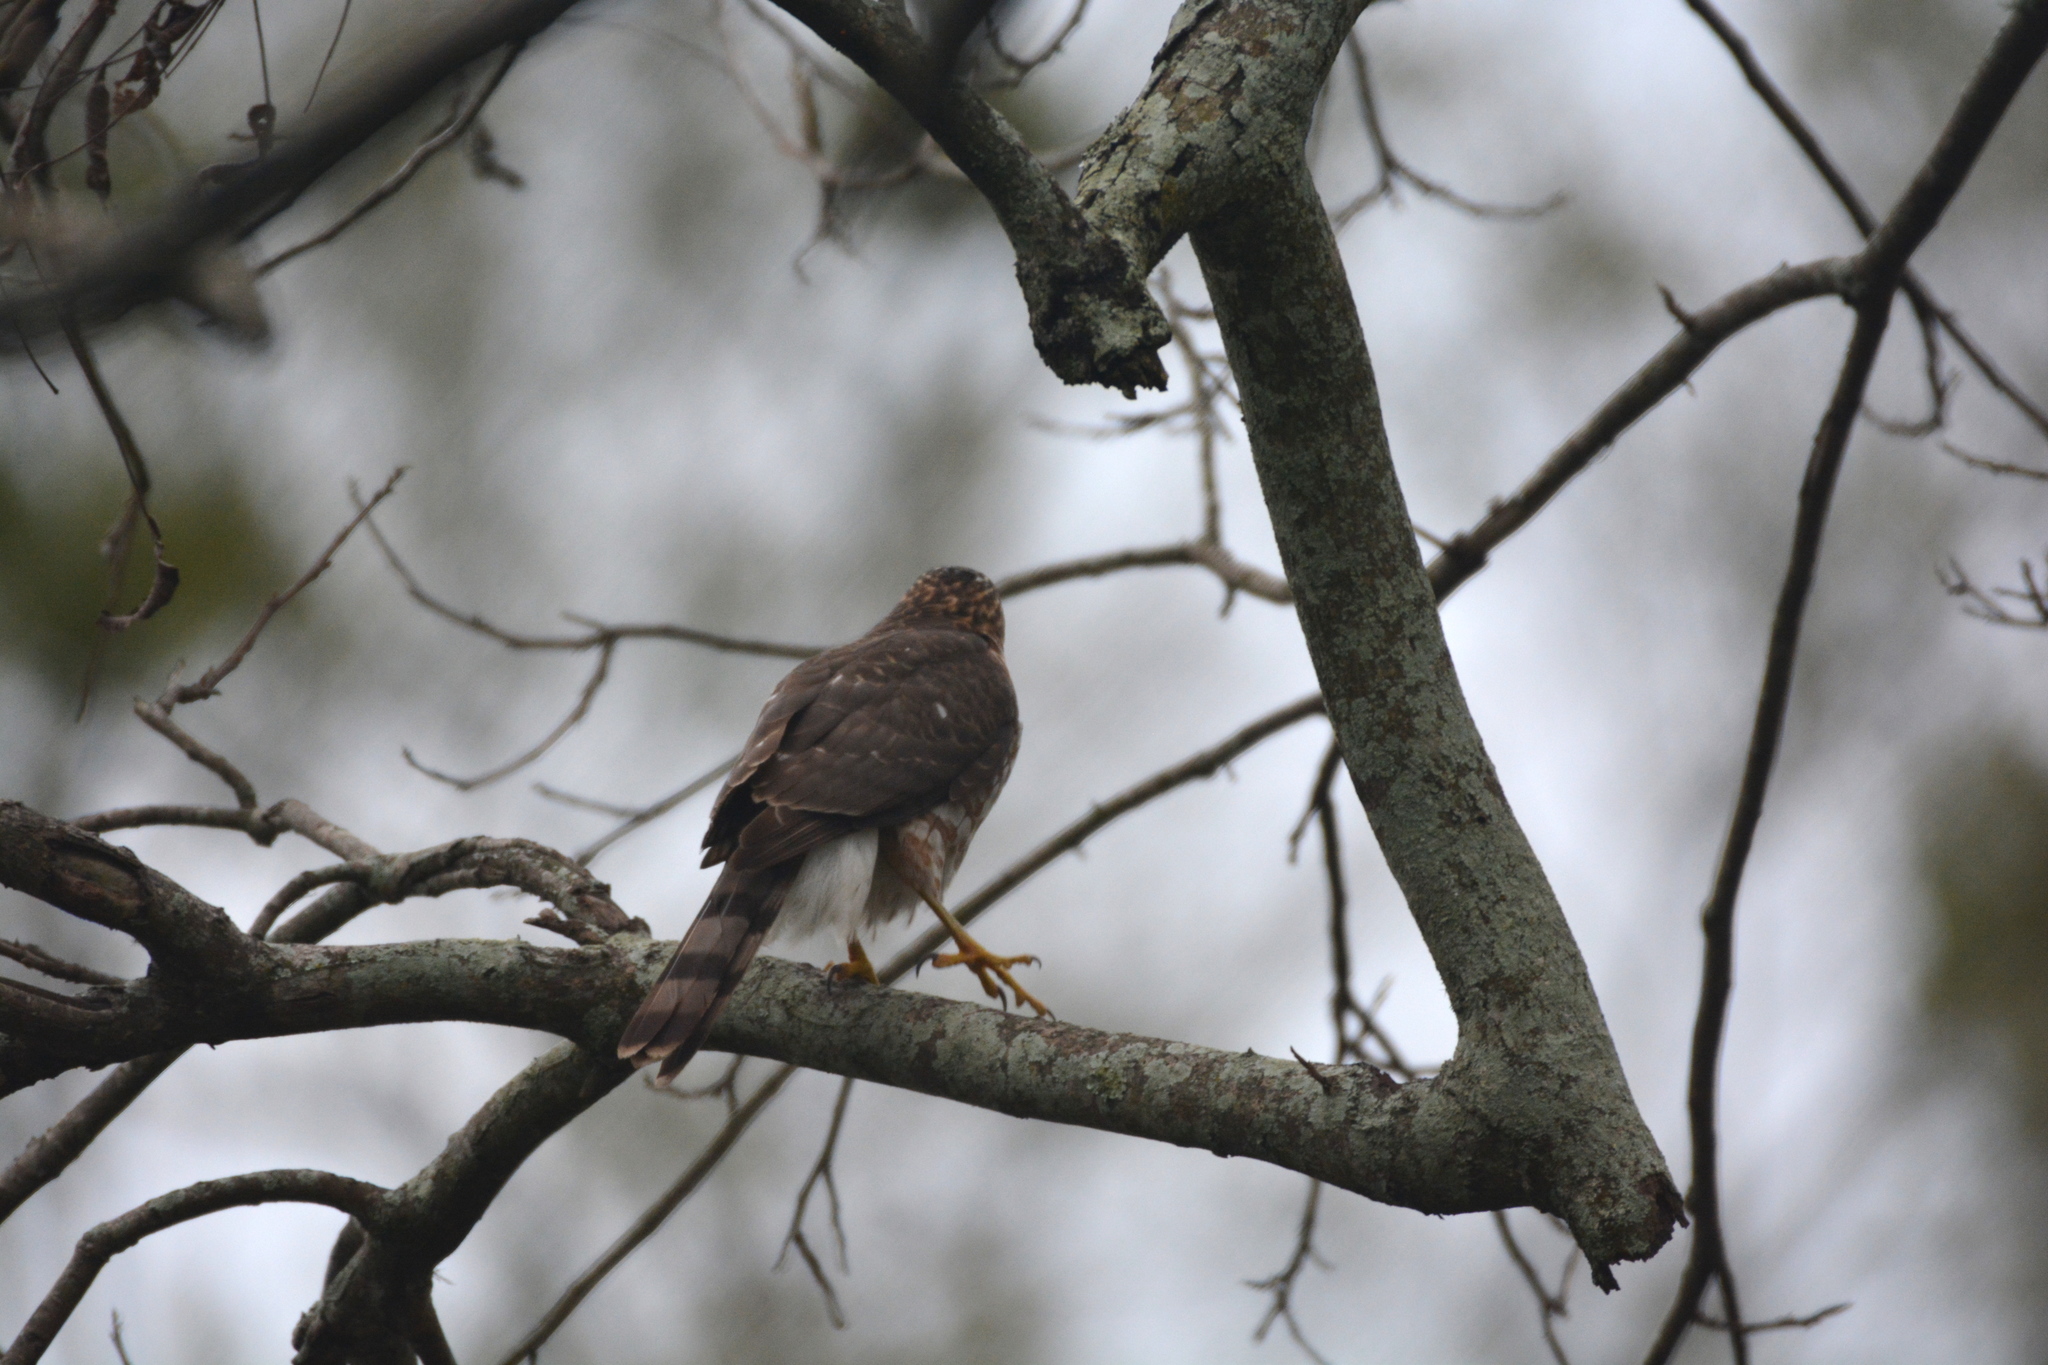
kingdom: Animalia
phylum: Chordata
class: Aves
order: Accipitriformes
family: Accipitridae
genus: Accipiter
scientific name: Accipiter striatus
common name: Sharp-shinned hawk
